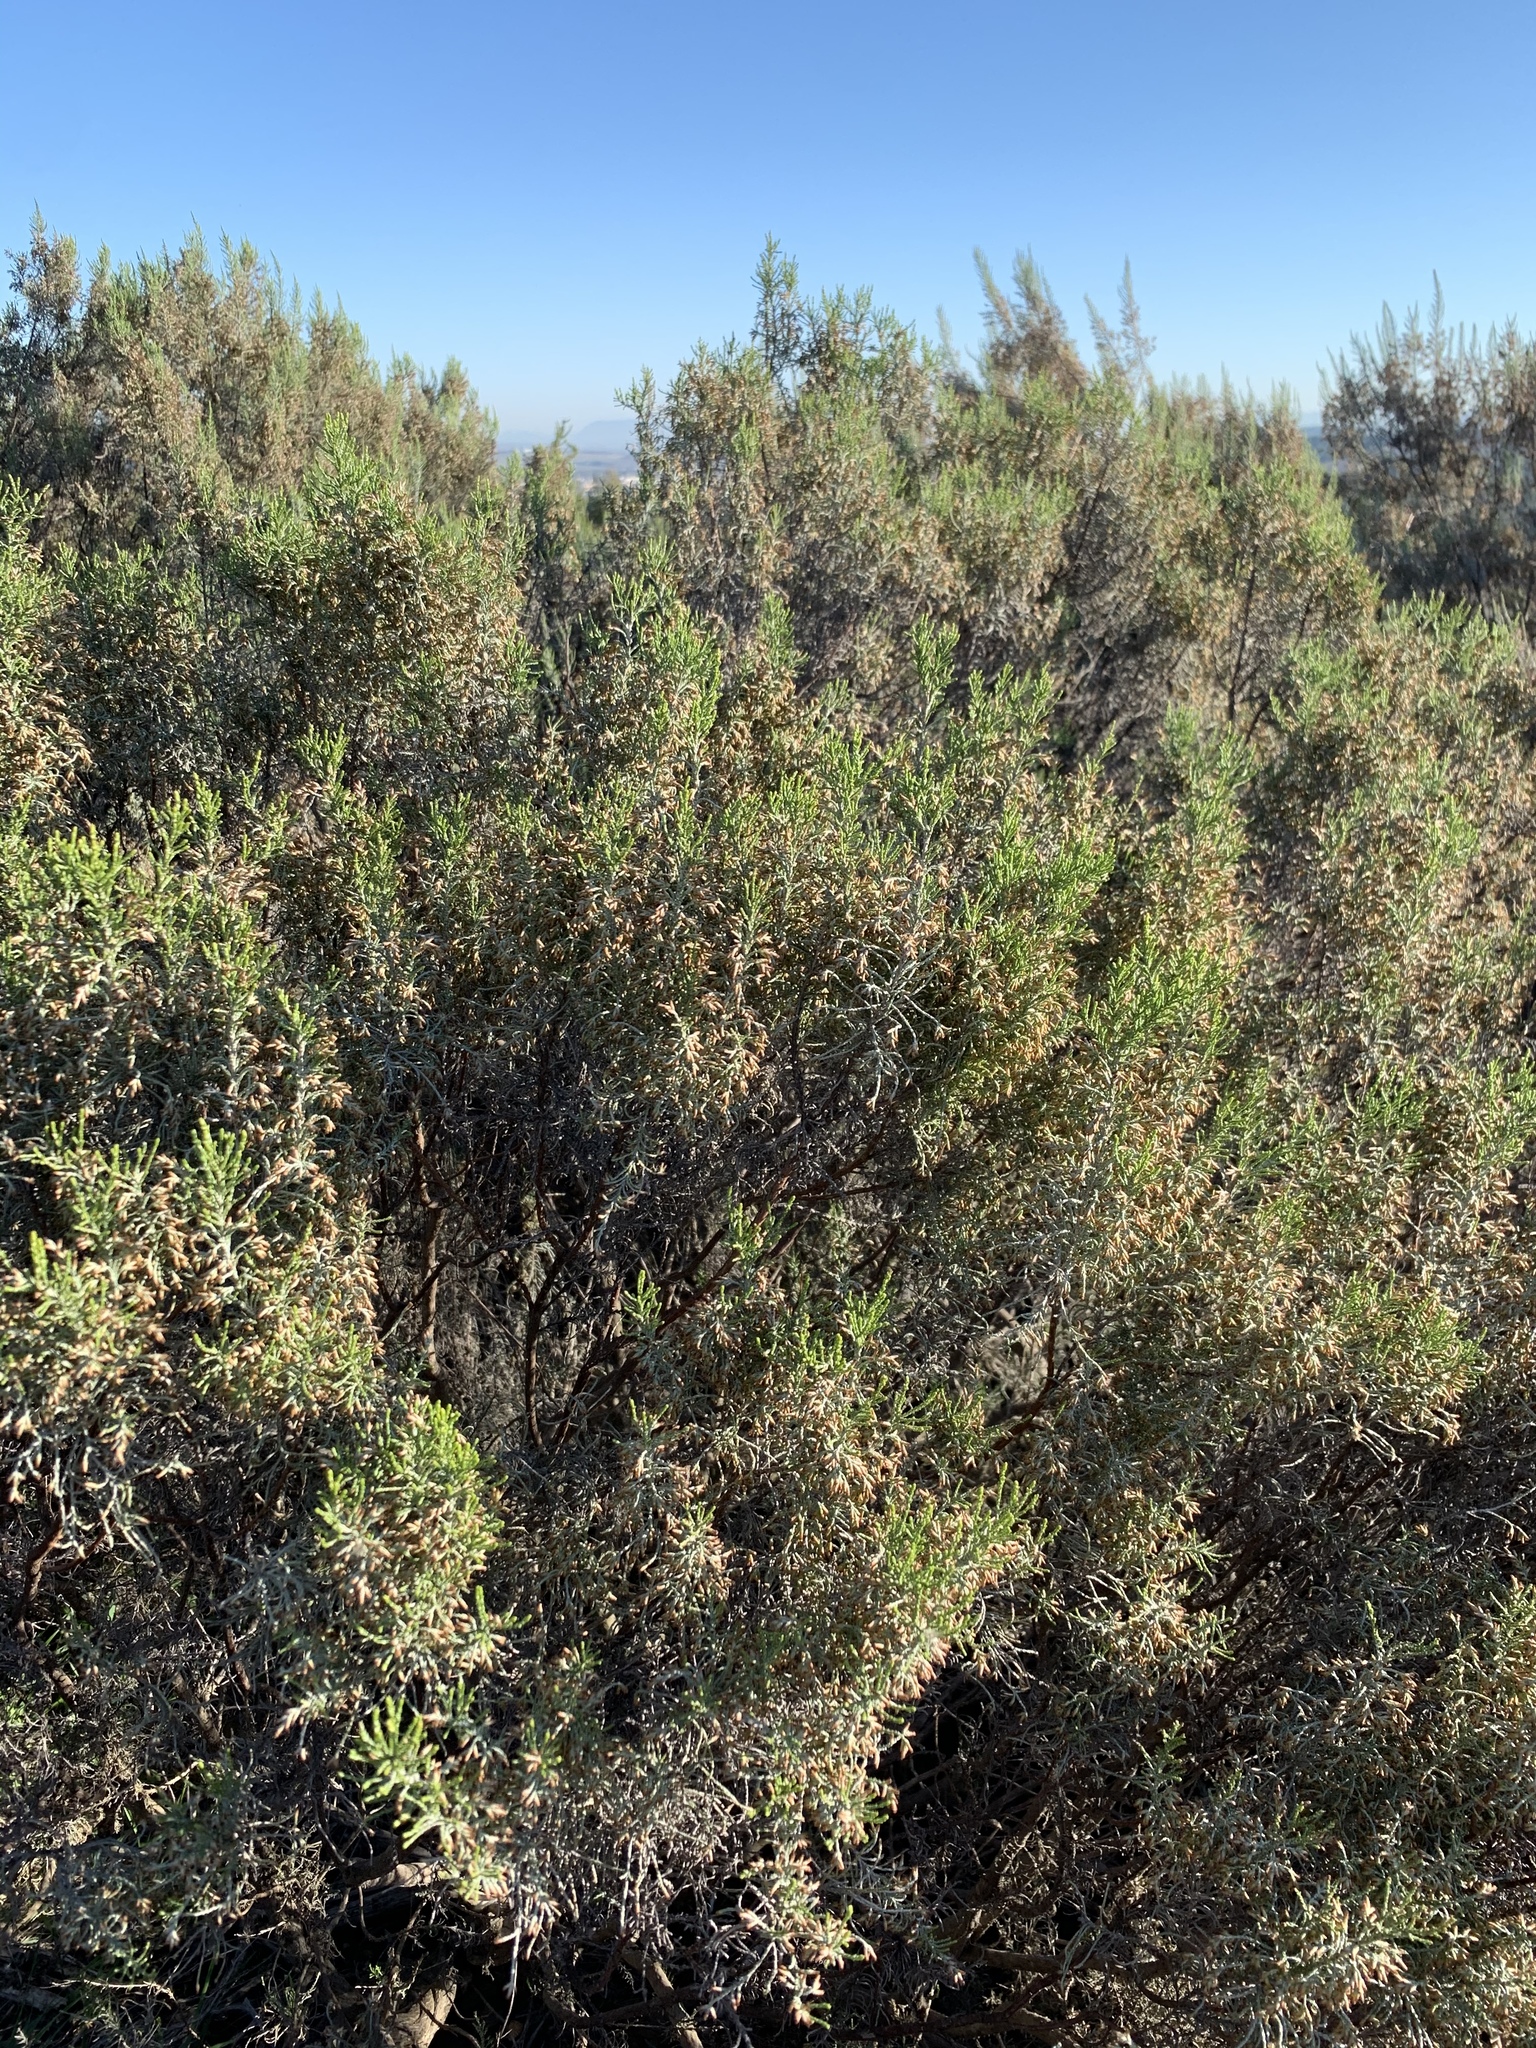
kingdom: Plantae
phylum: Tracheophyta
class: Magnoliopsida
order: Asterales
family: Asteraceae
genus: Dicerothamnus
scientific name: Dicerothamnus rhinocerotis
